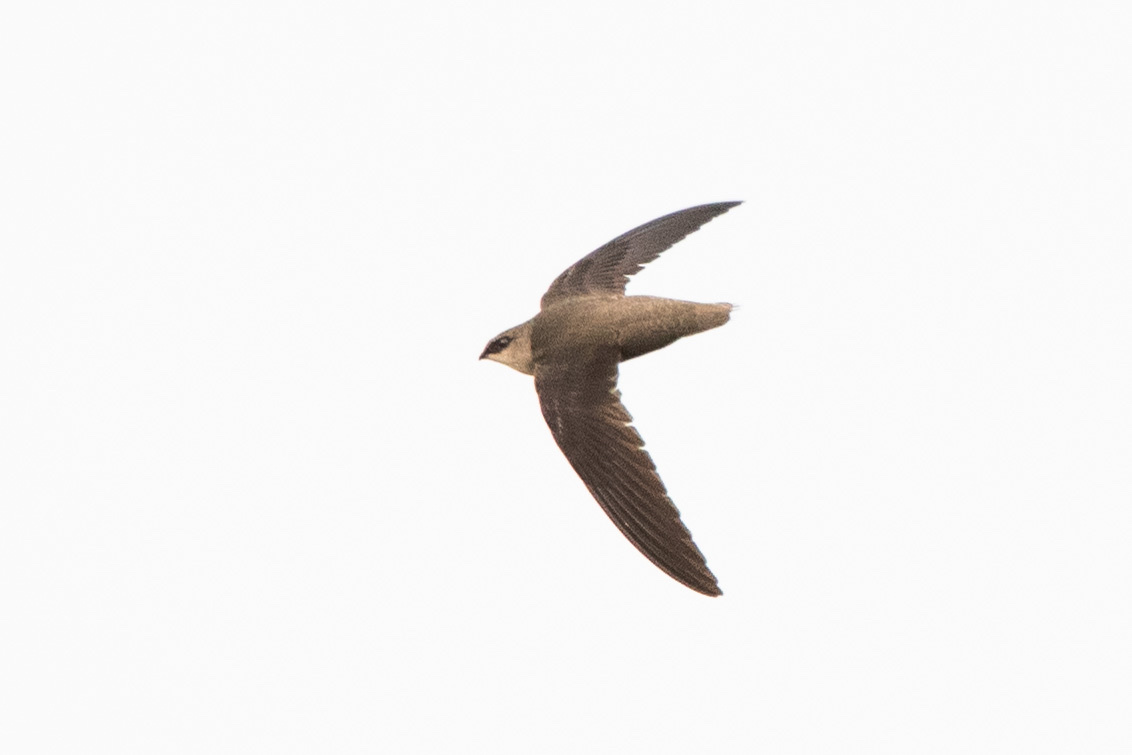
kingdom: Animalia
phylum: Chordata
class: Aves
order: Apodiformes
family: Apodidae
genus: Chaetura
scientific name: Chaetura pelagica
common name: Chimney swift
